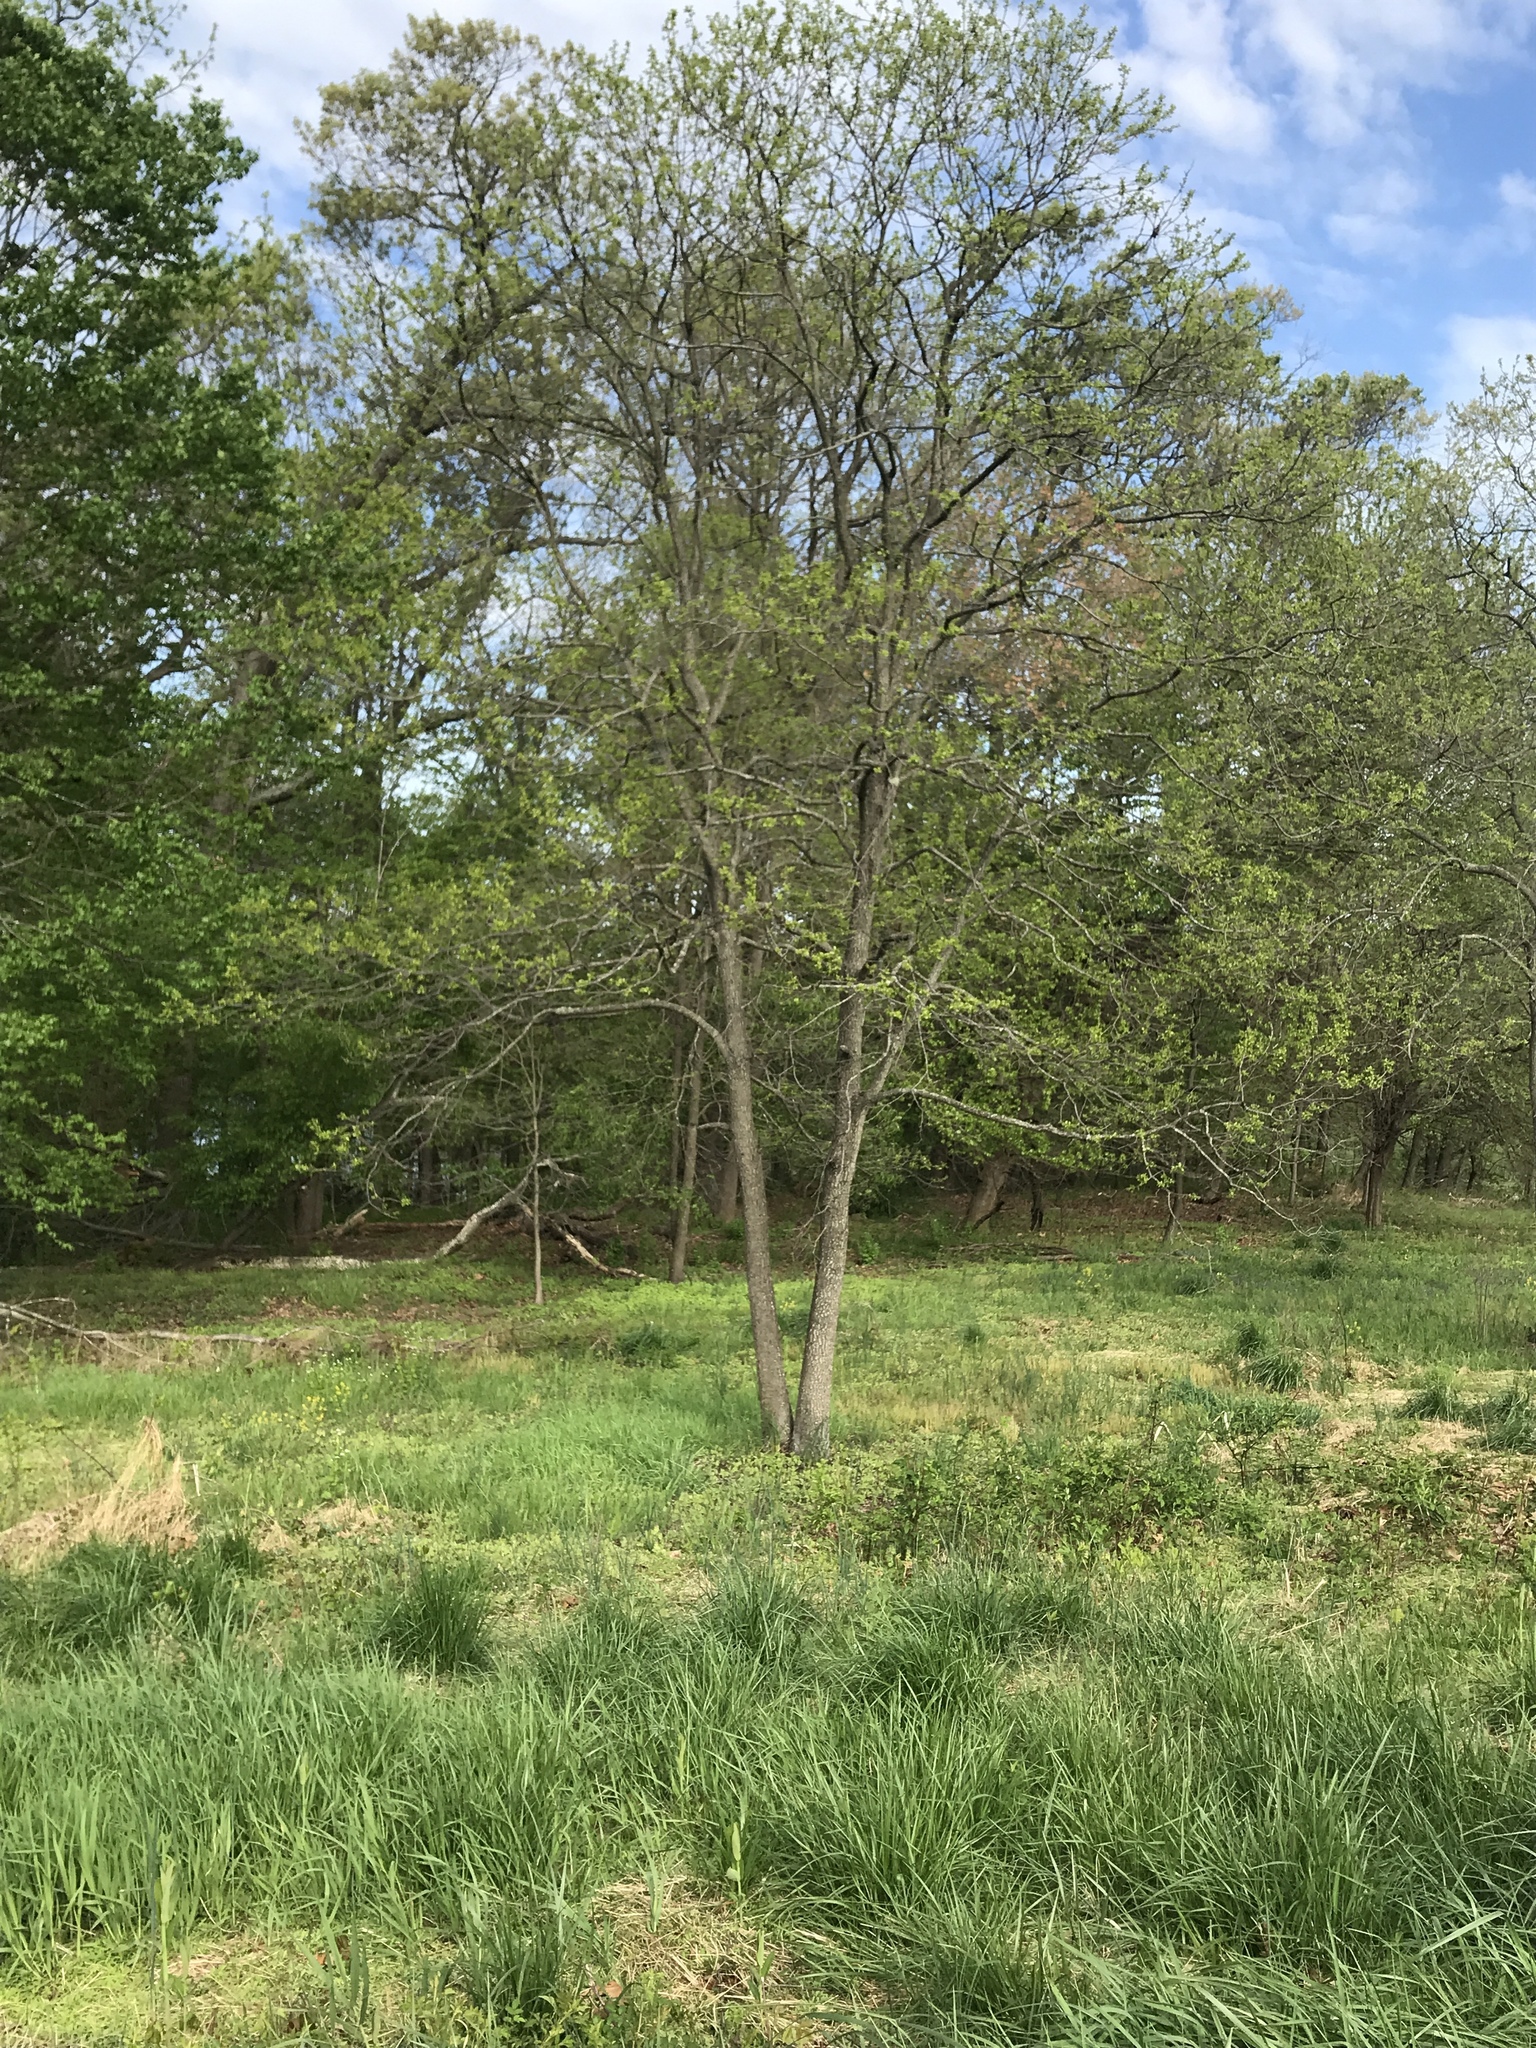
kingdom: Plantae
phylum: Tracheophyta
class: Magnoliopsida
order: Ericales
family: Ebenaceae
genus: Diospyros
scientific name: Diospyros virginiana
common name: Persimmon
